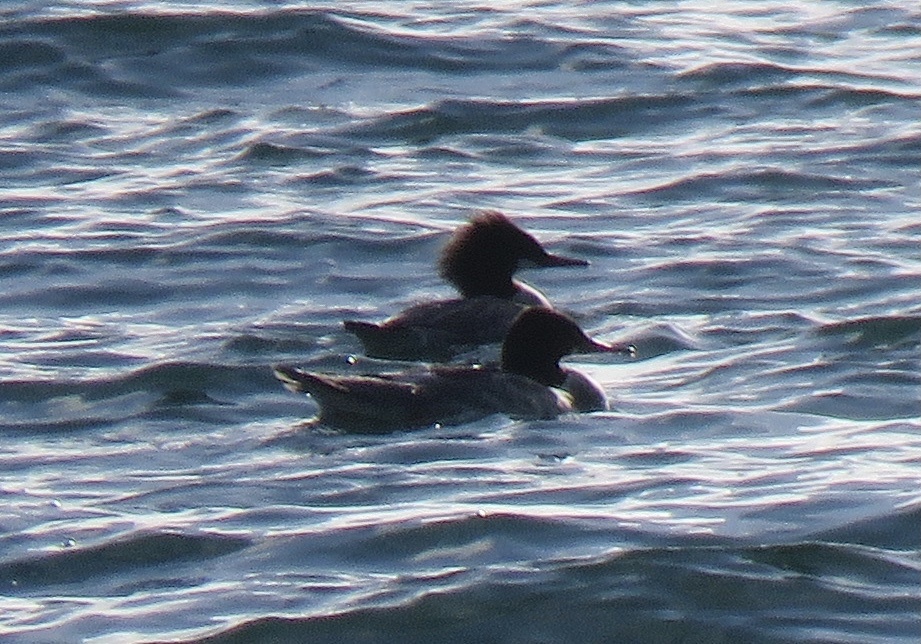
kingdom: Animalia
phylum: Chordata
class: Aves
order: Anseriformes
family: Anatidae
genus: Mergus
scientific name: Mergus merganser
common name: Common merganser
